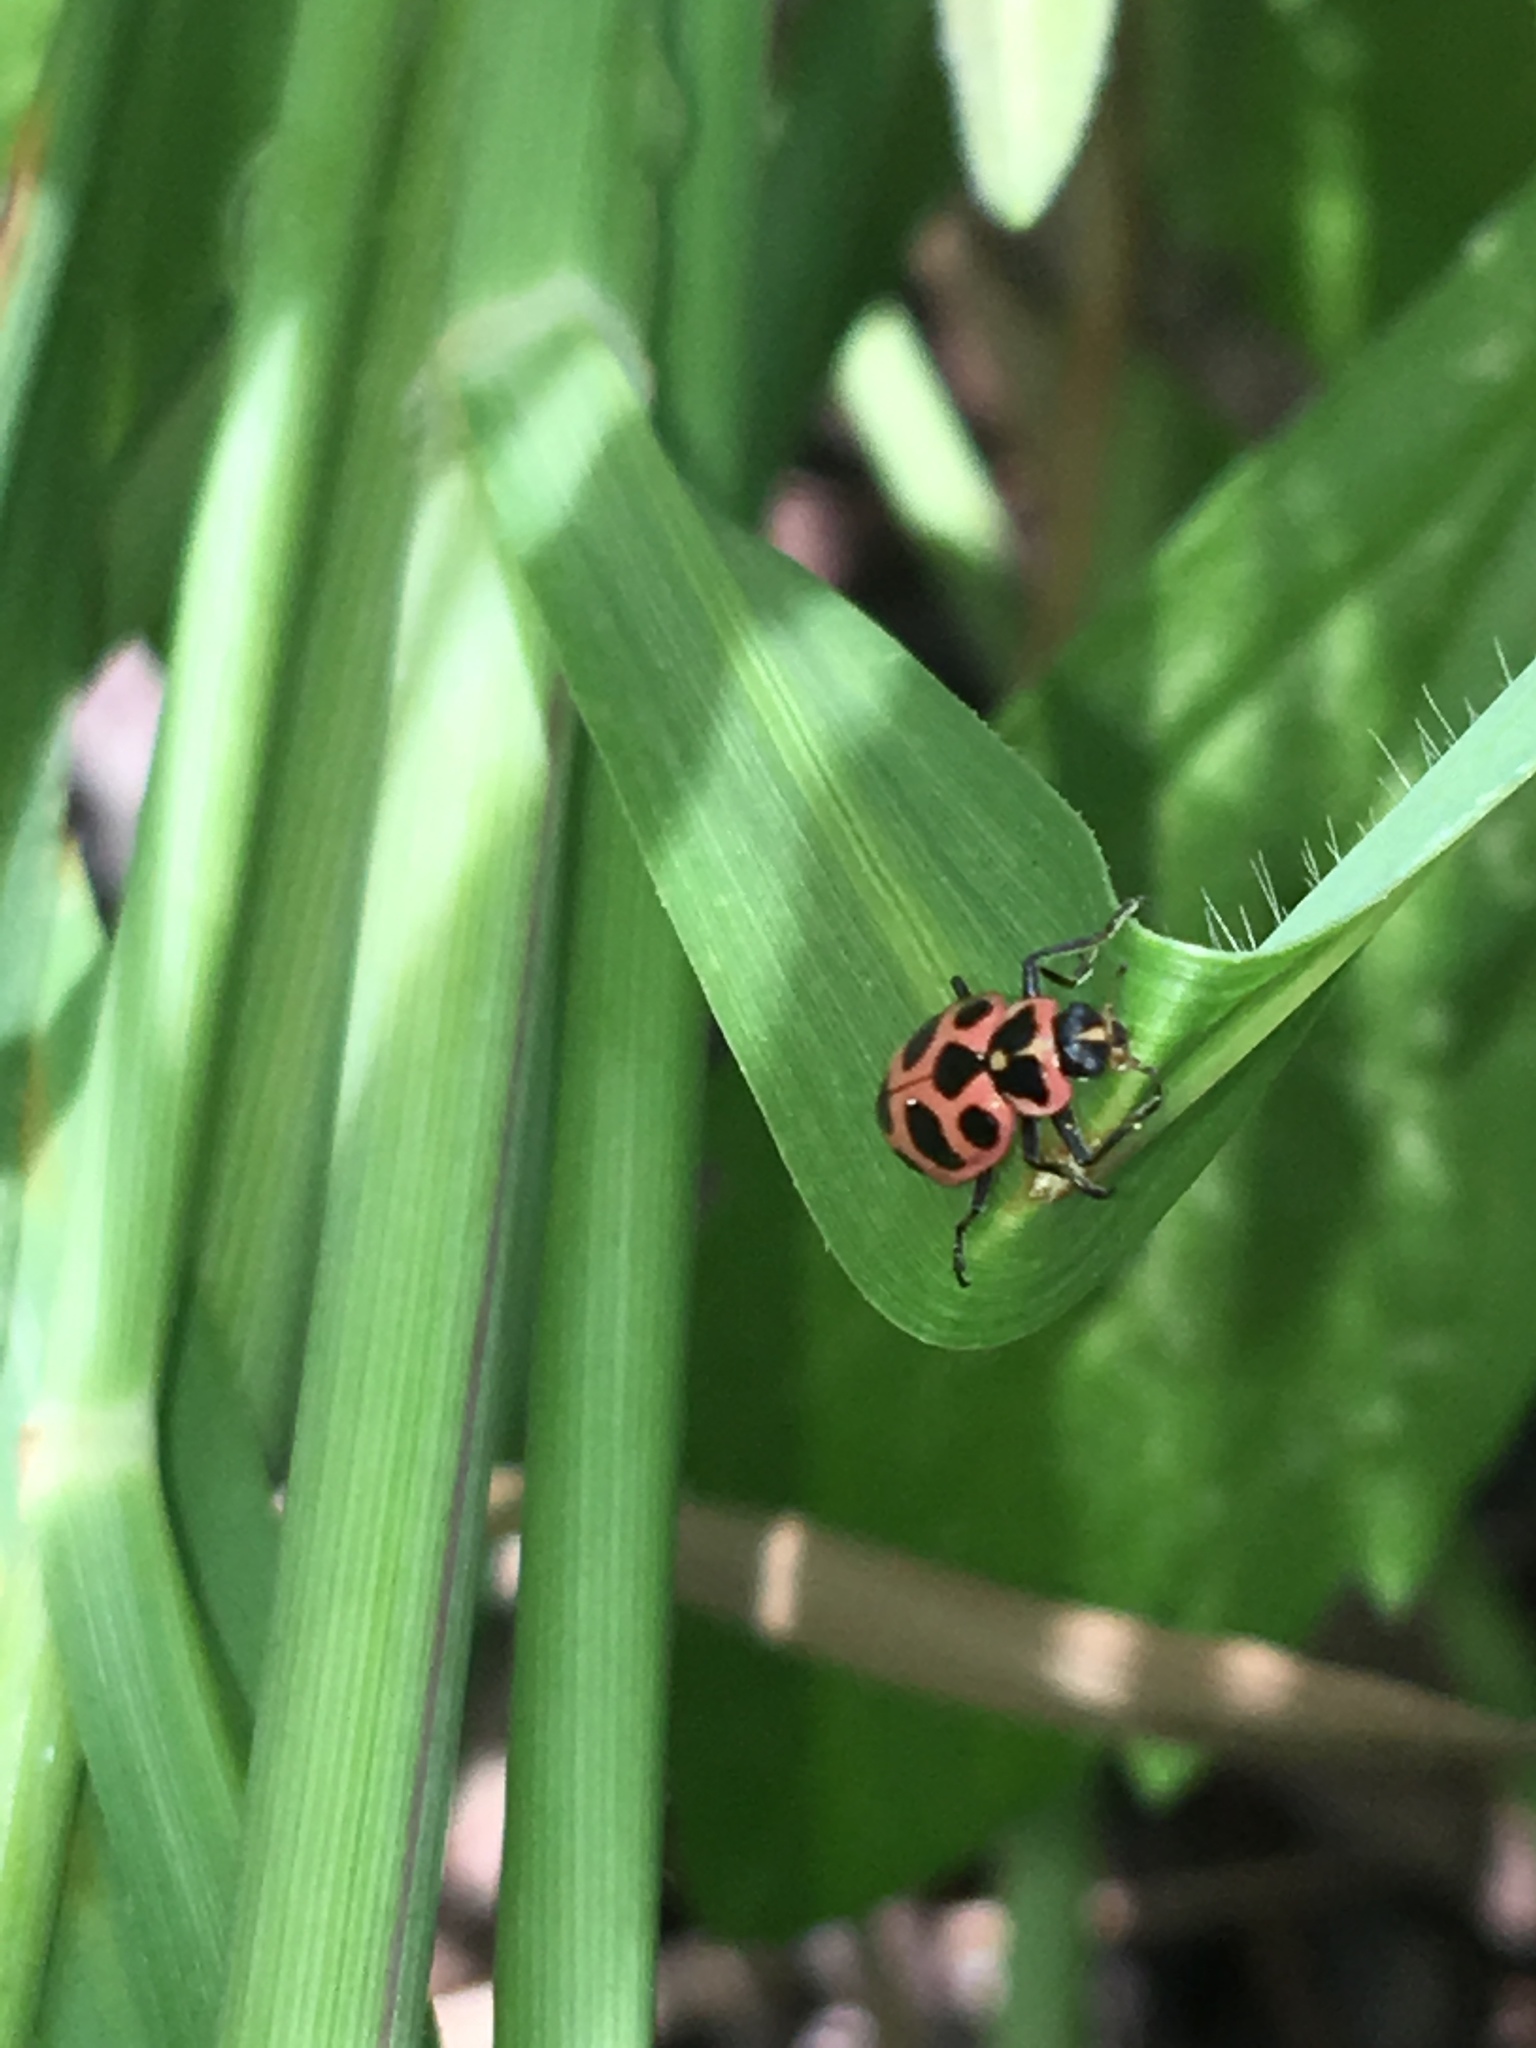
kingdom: Animalia
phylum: Arthropoda
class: Insecta
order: Coleoptera
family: Coccinellidae
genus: Coleomegilla
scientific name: Coleomegilla maculata
